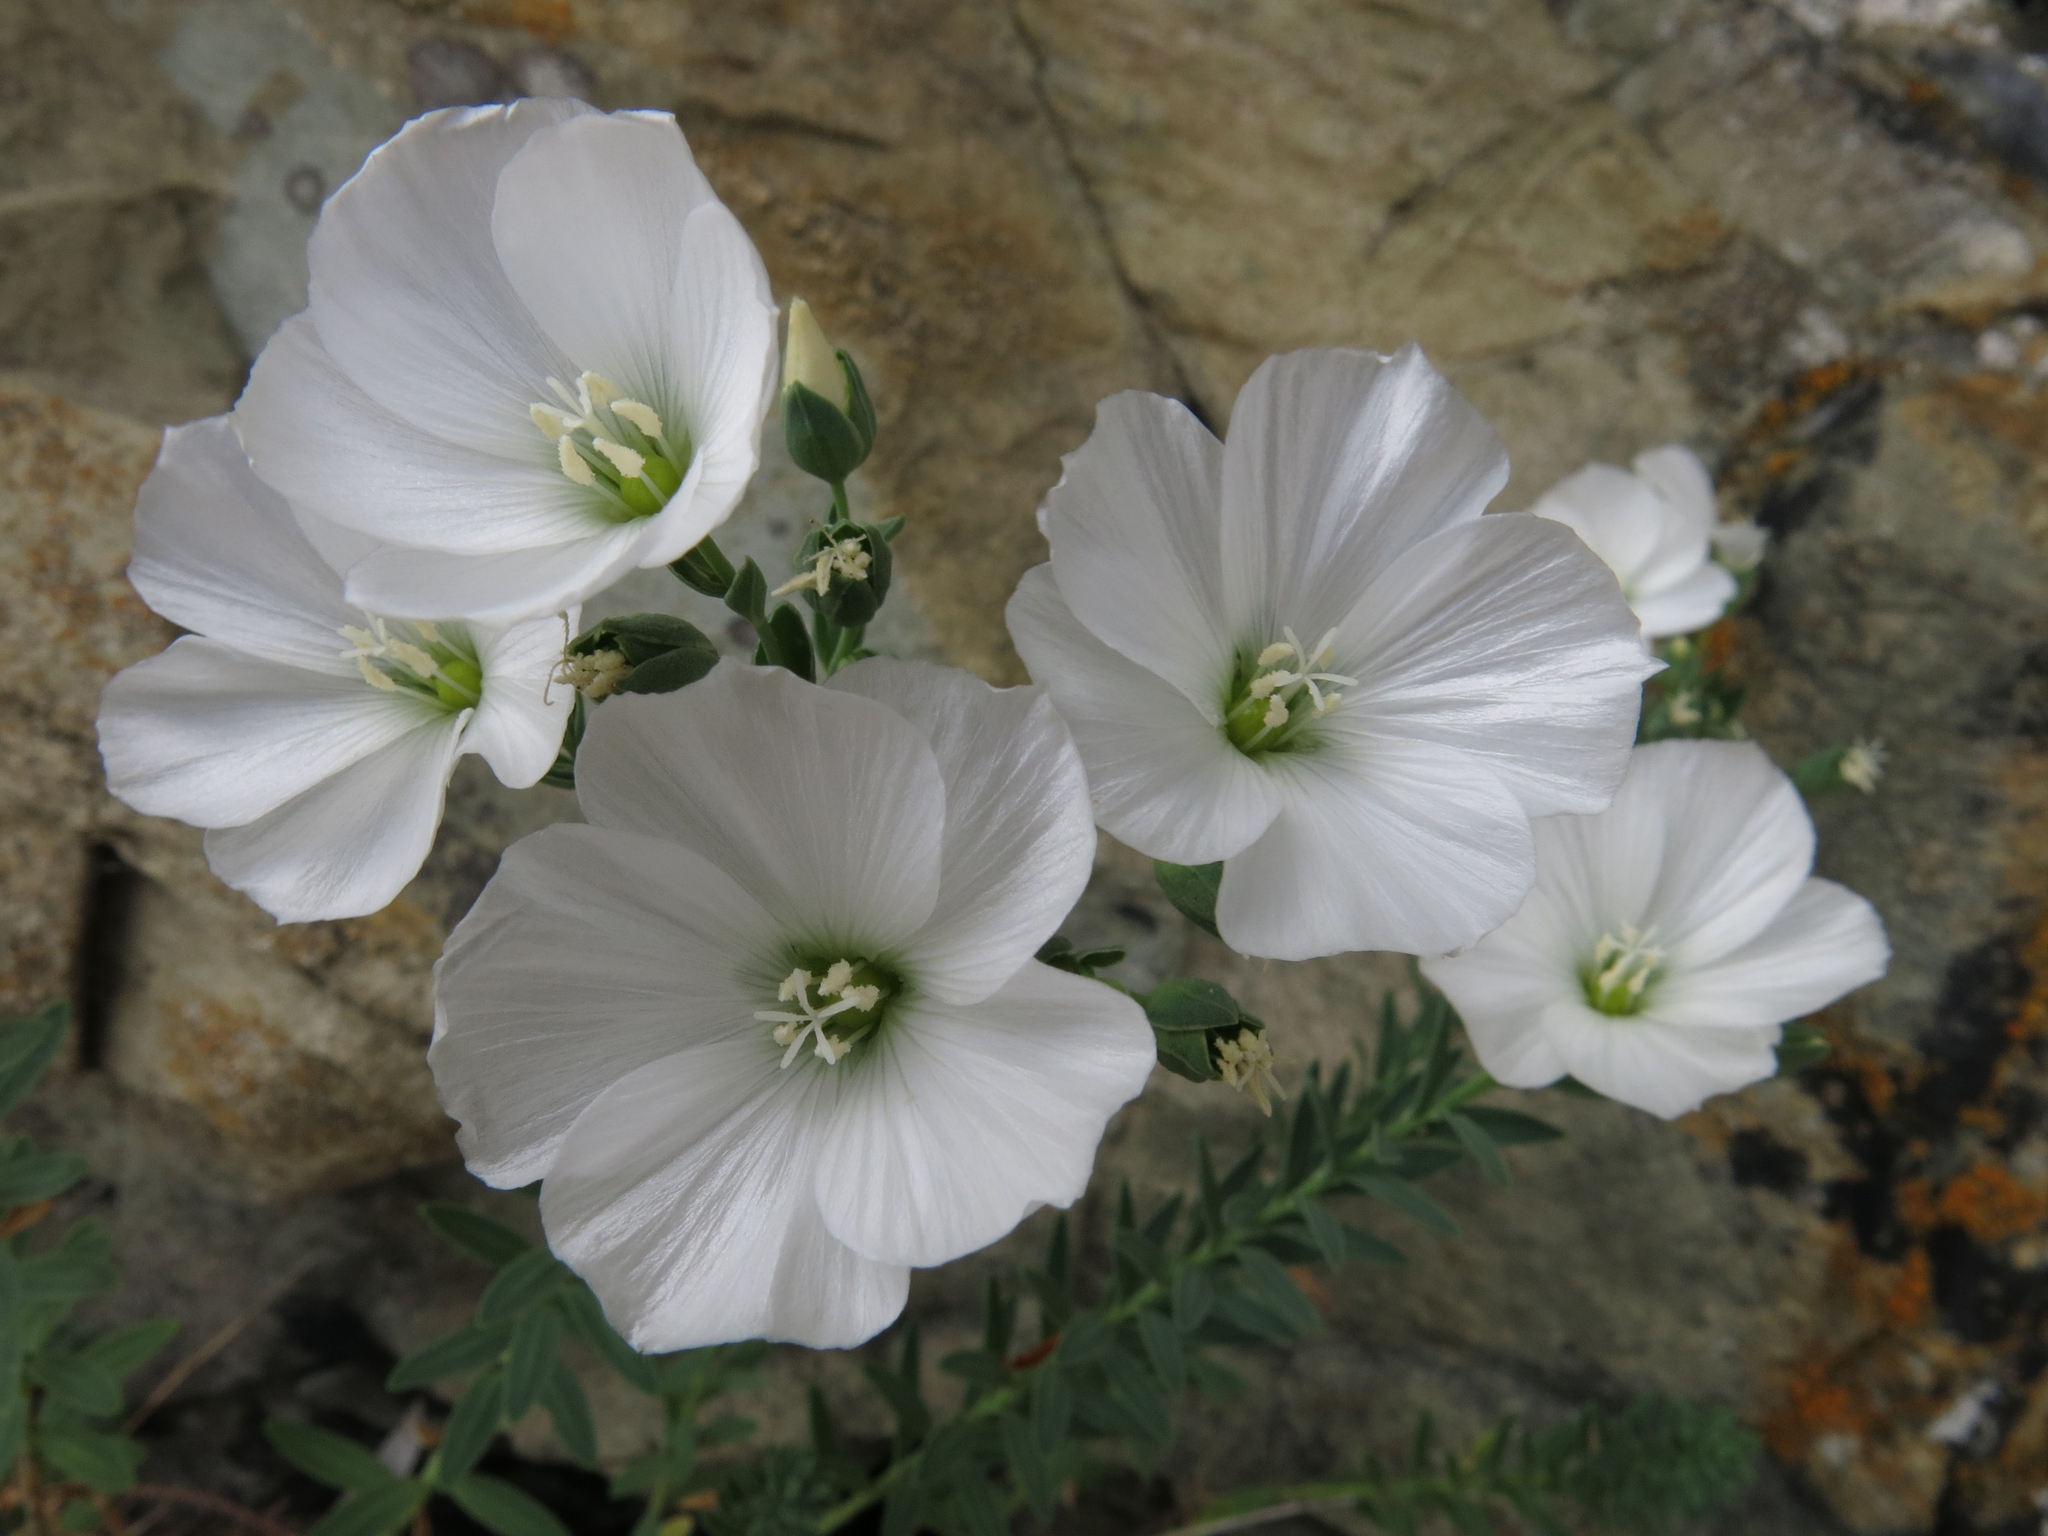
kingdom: Plantae
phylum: Tracheophyta
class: Magnoliopsida
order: Malpighiales
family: Linaceae
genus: Linum
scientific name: Linum monogynum
